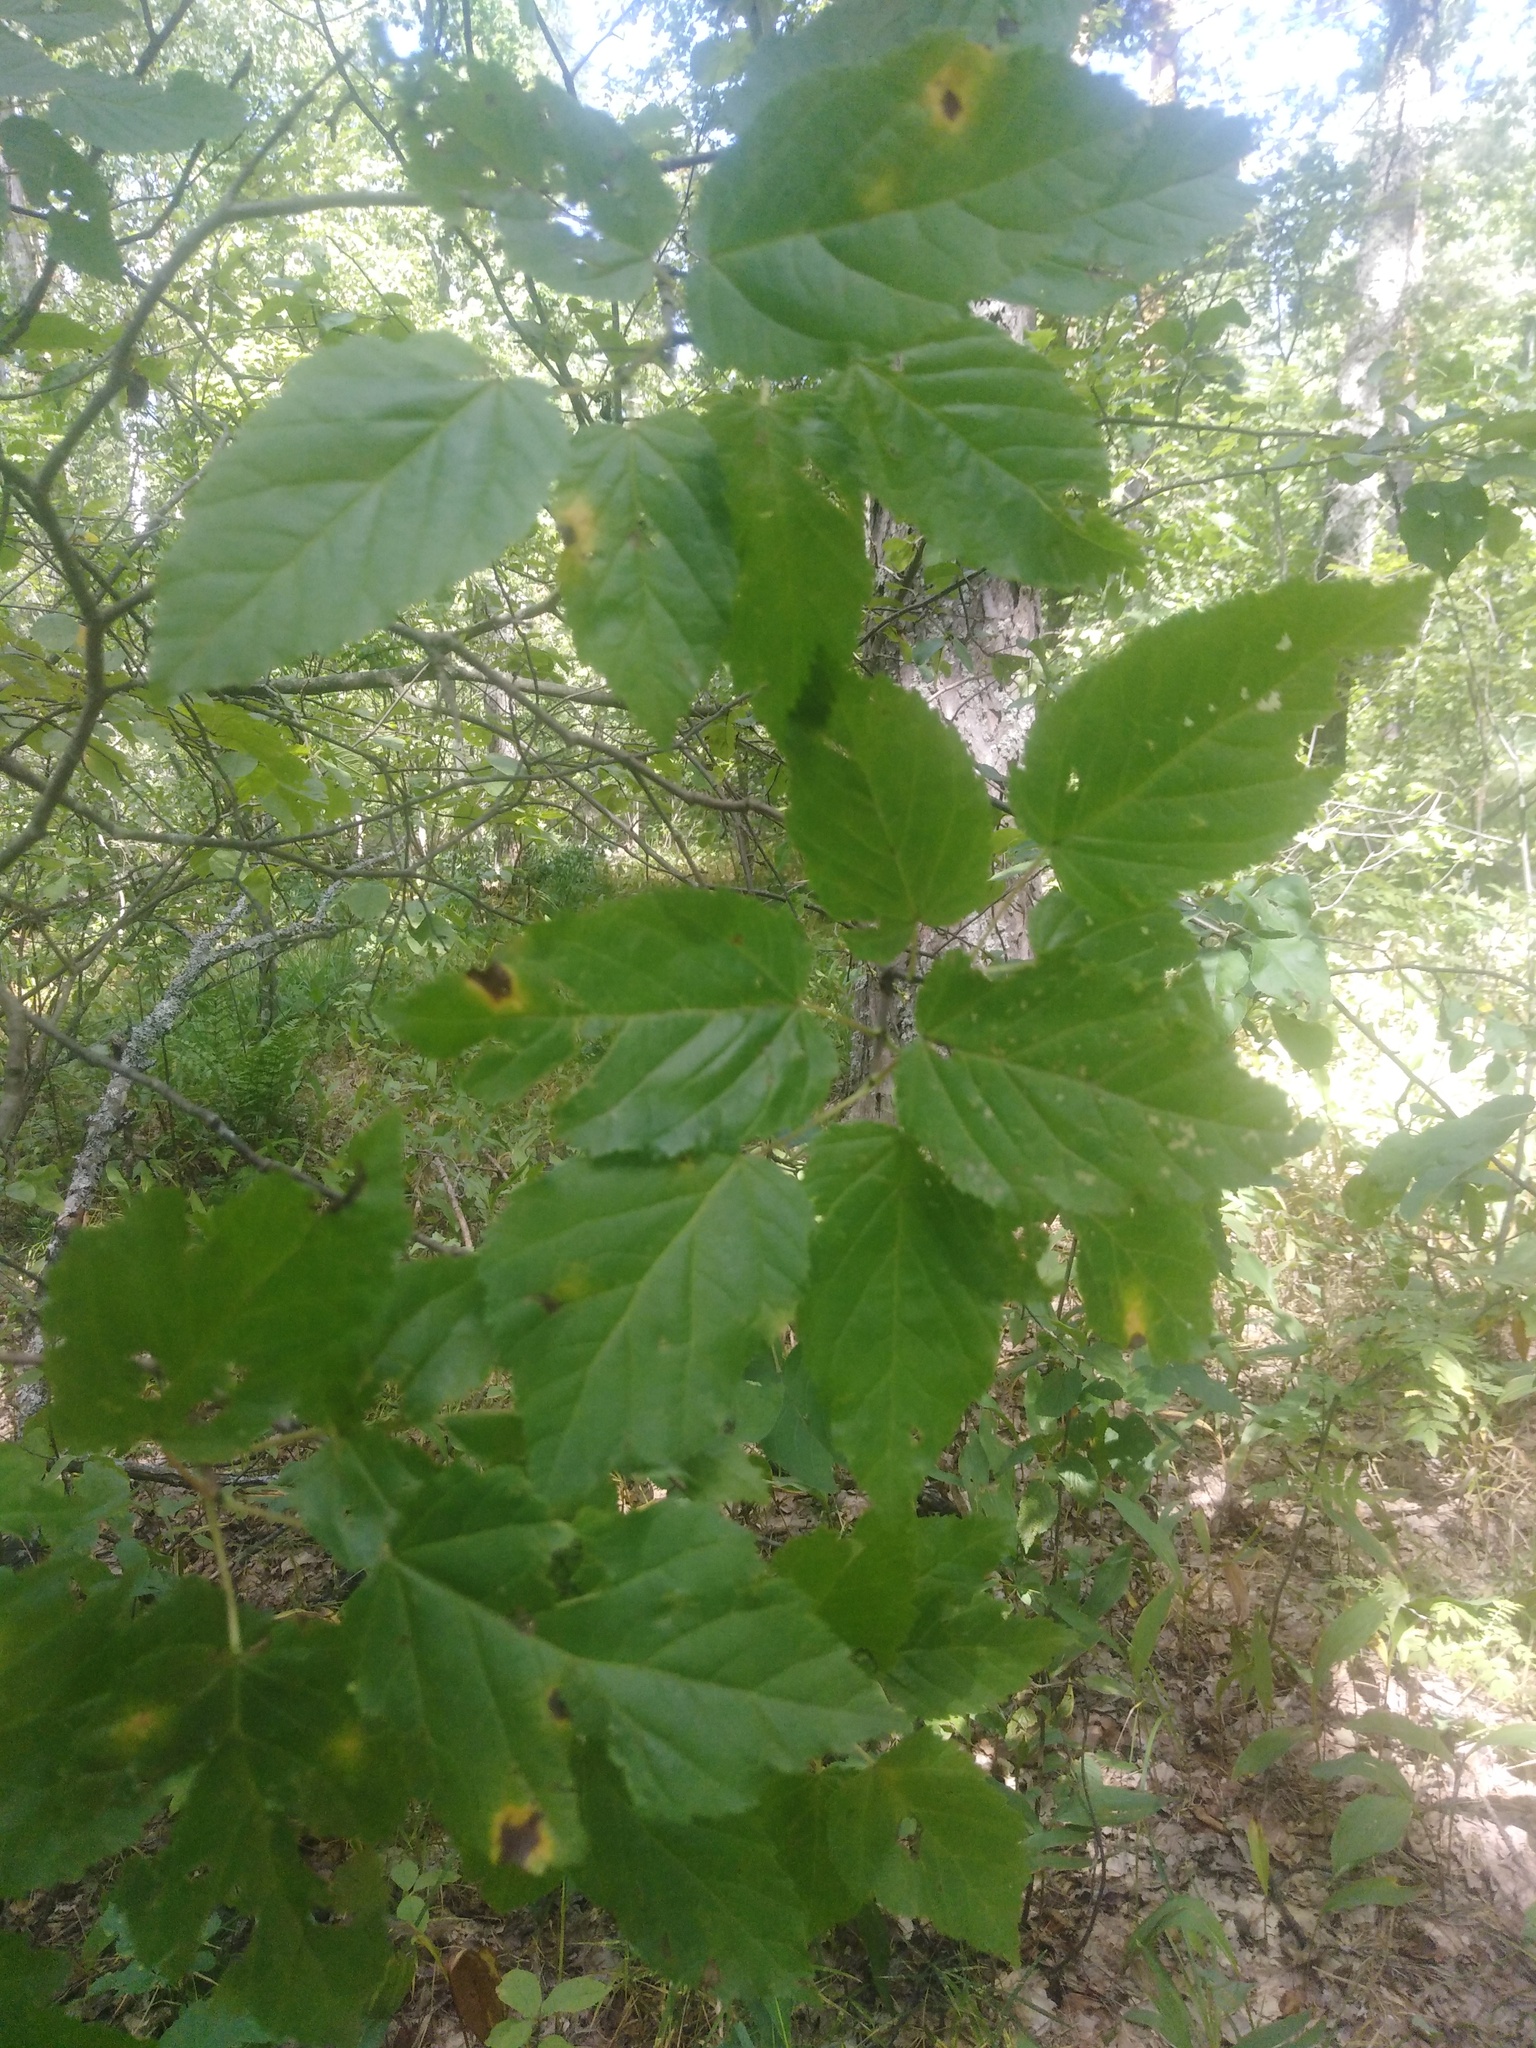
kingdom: Plantae
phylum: Tracheophyta
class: Magnoliopsida
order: Sapindales
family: Sapindaceae
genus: Acer
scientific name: Acer tataricum
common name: Tartar maple
